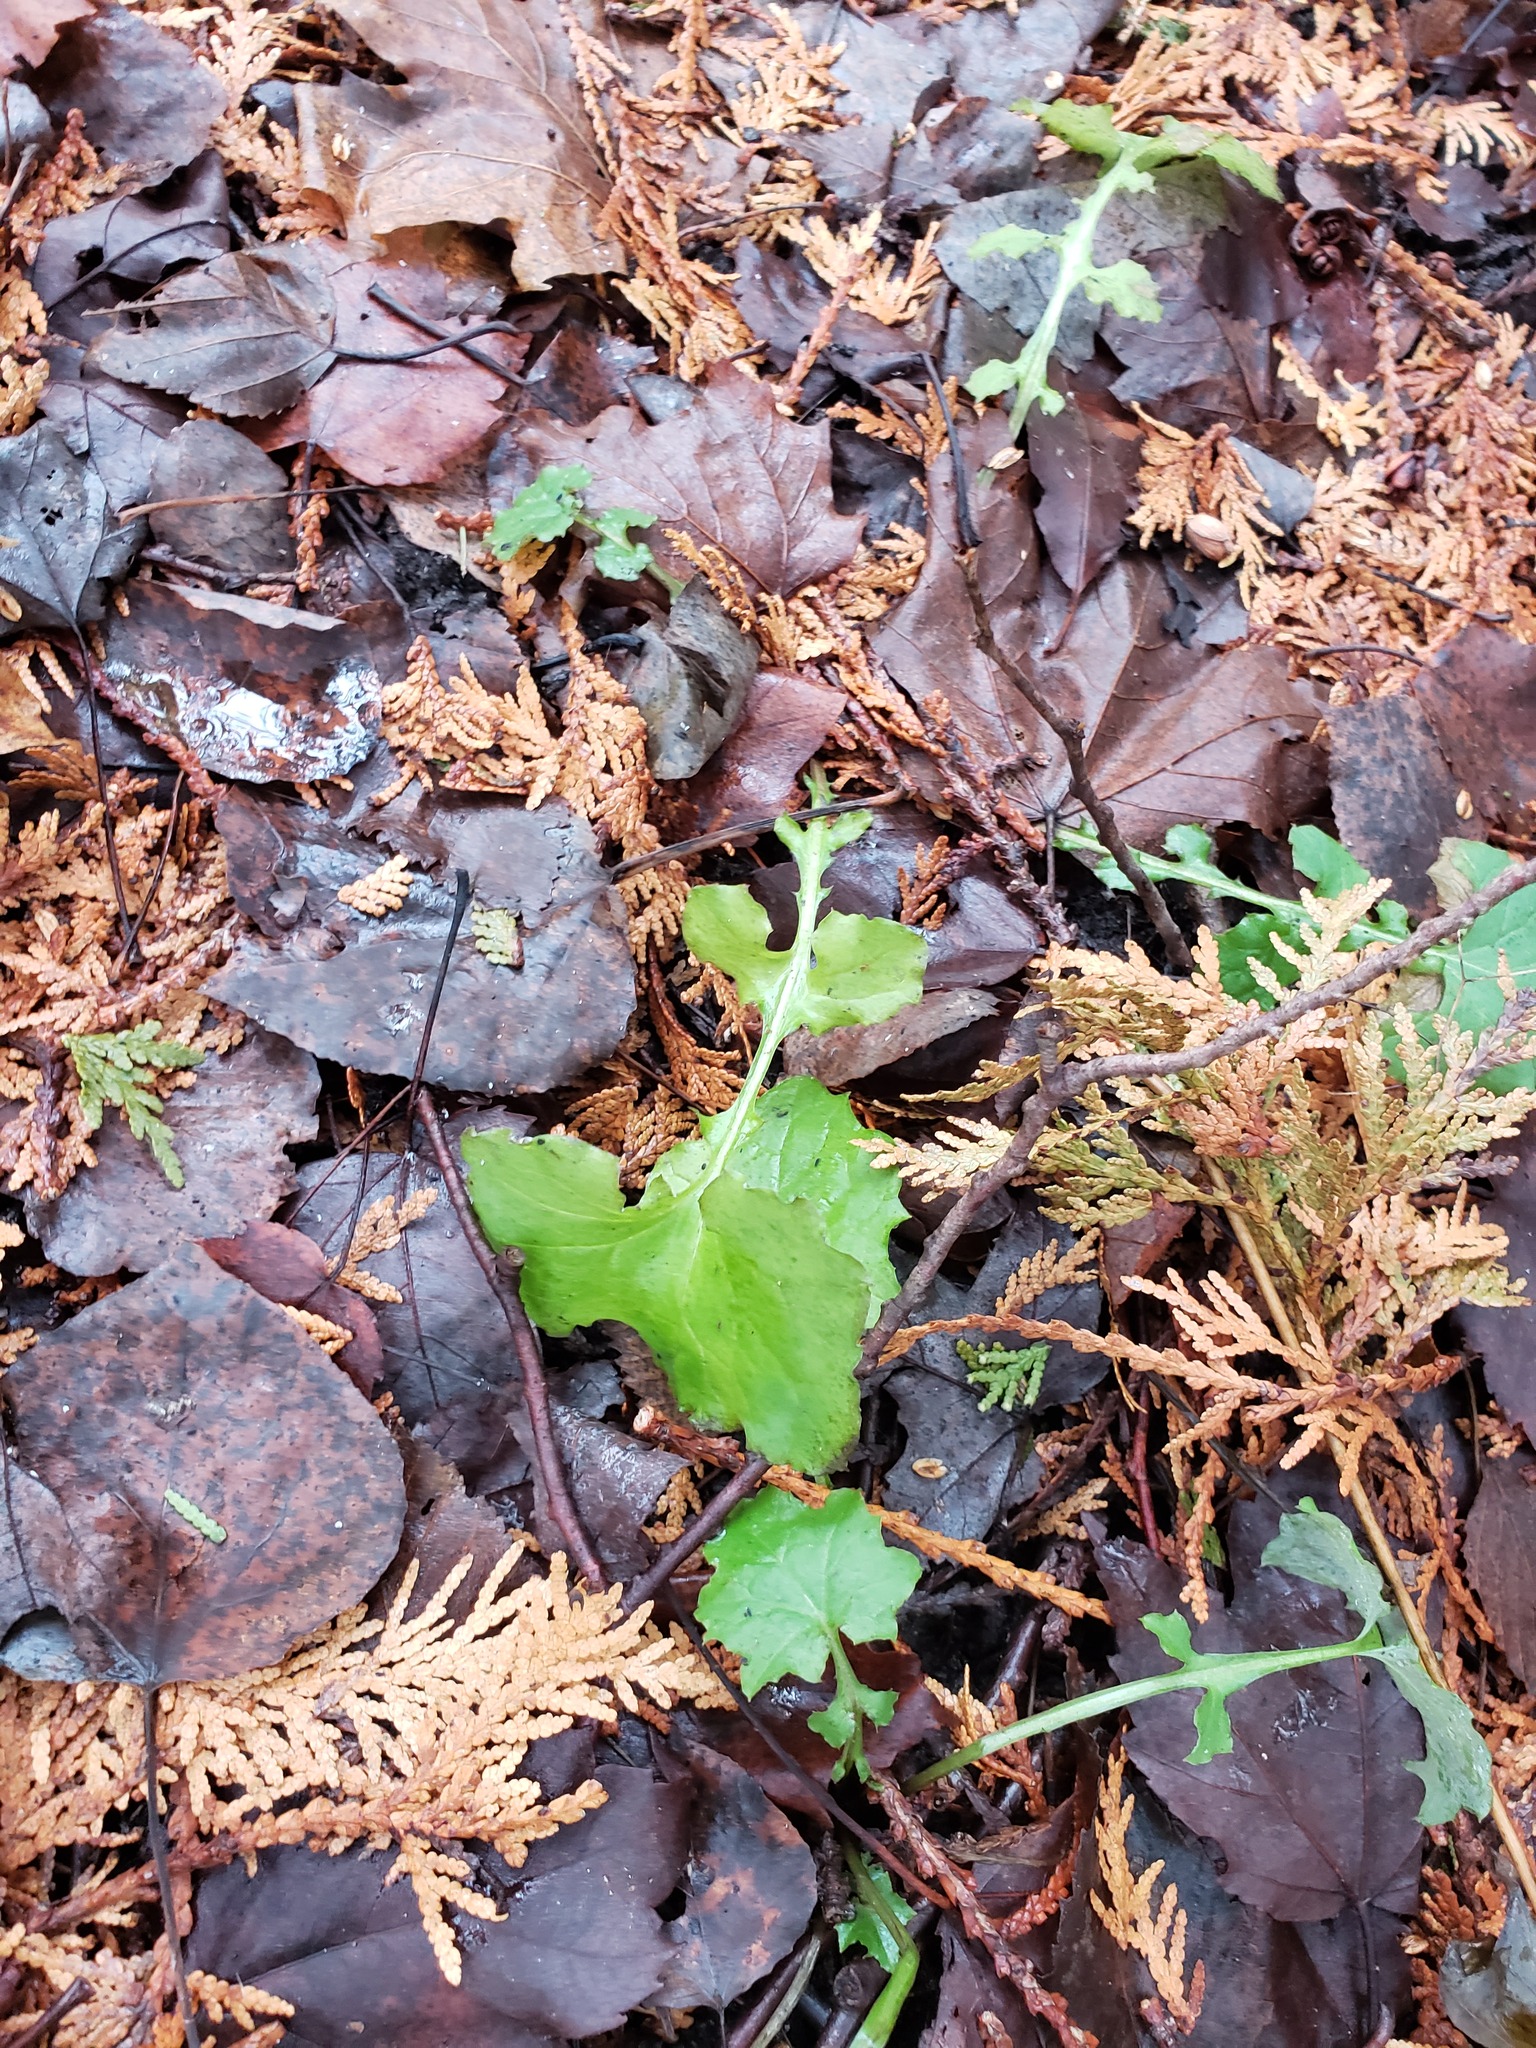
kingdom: Plantae
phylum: Tracheophyta
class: Magnoliopsida
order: Asterales
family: Asteraceae
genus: Mycelis
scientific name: Mycelis muralis
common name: Wall lettuce
